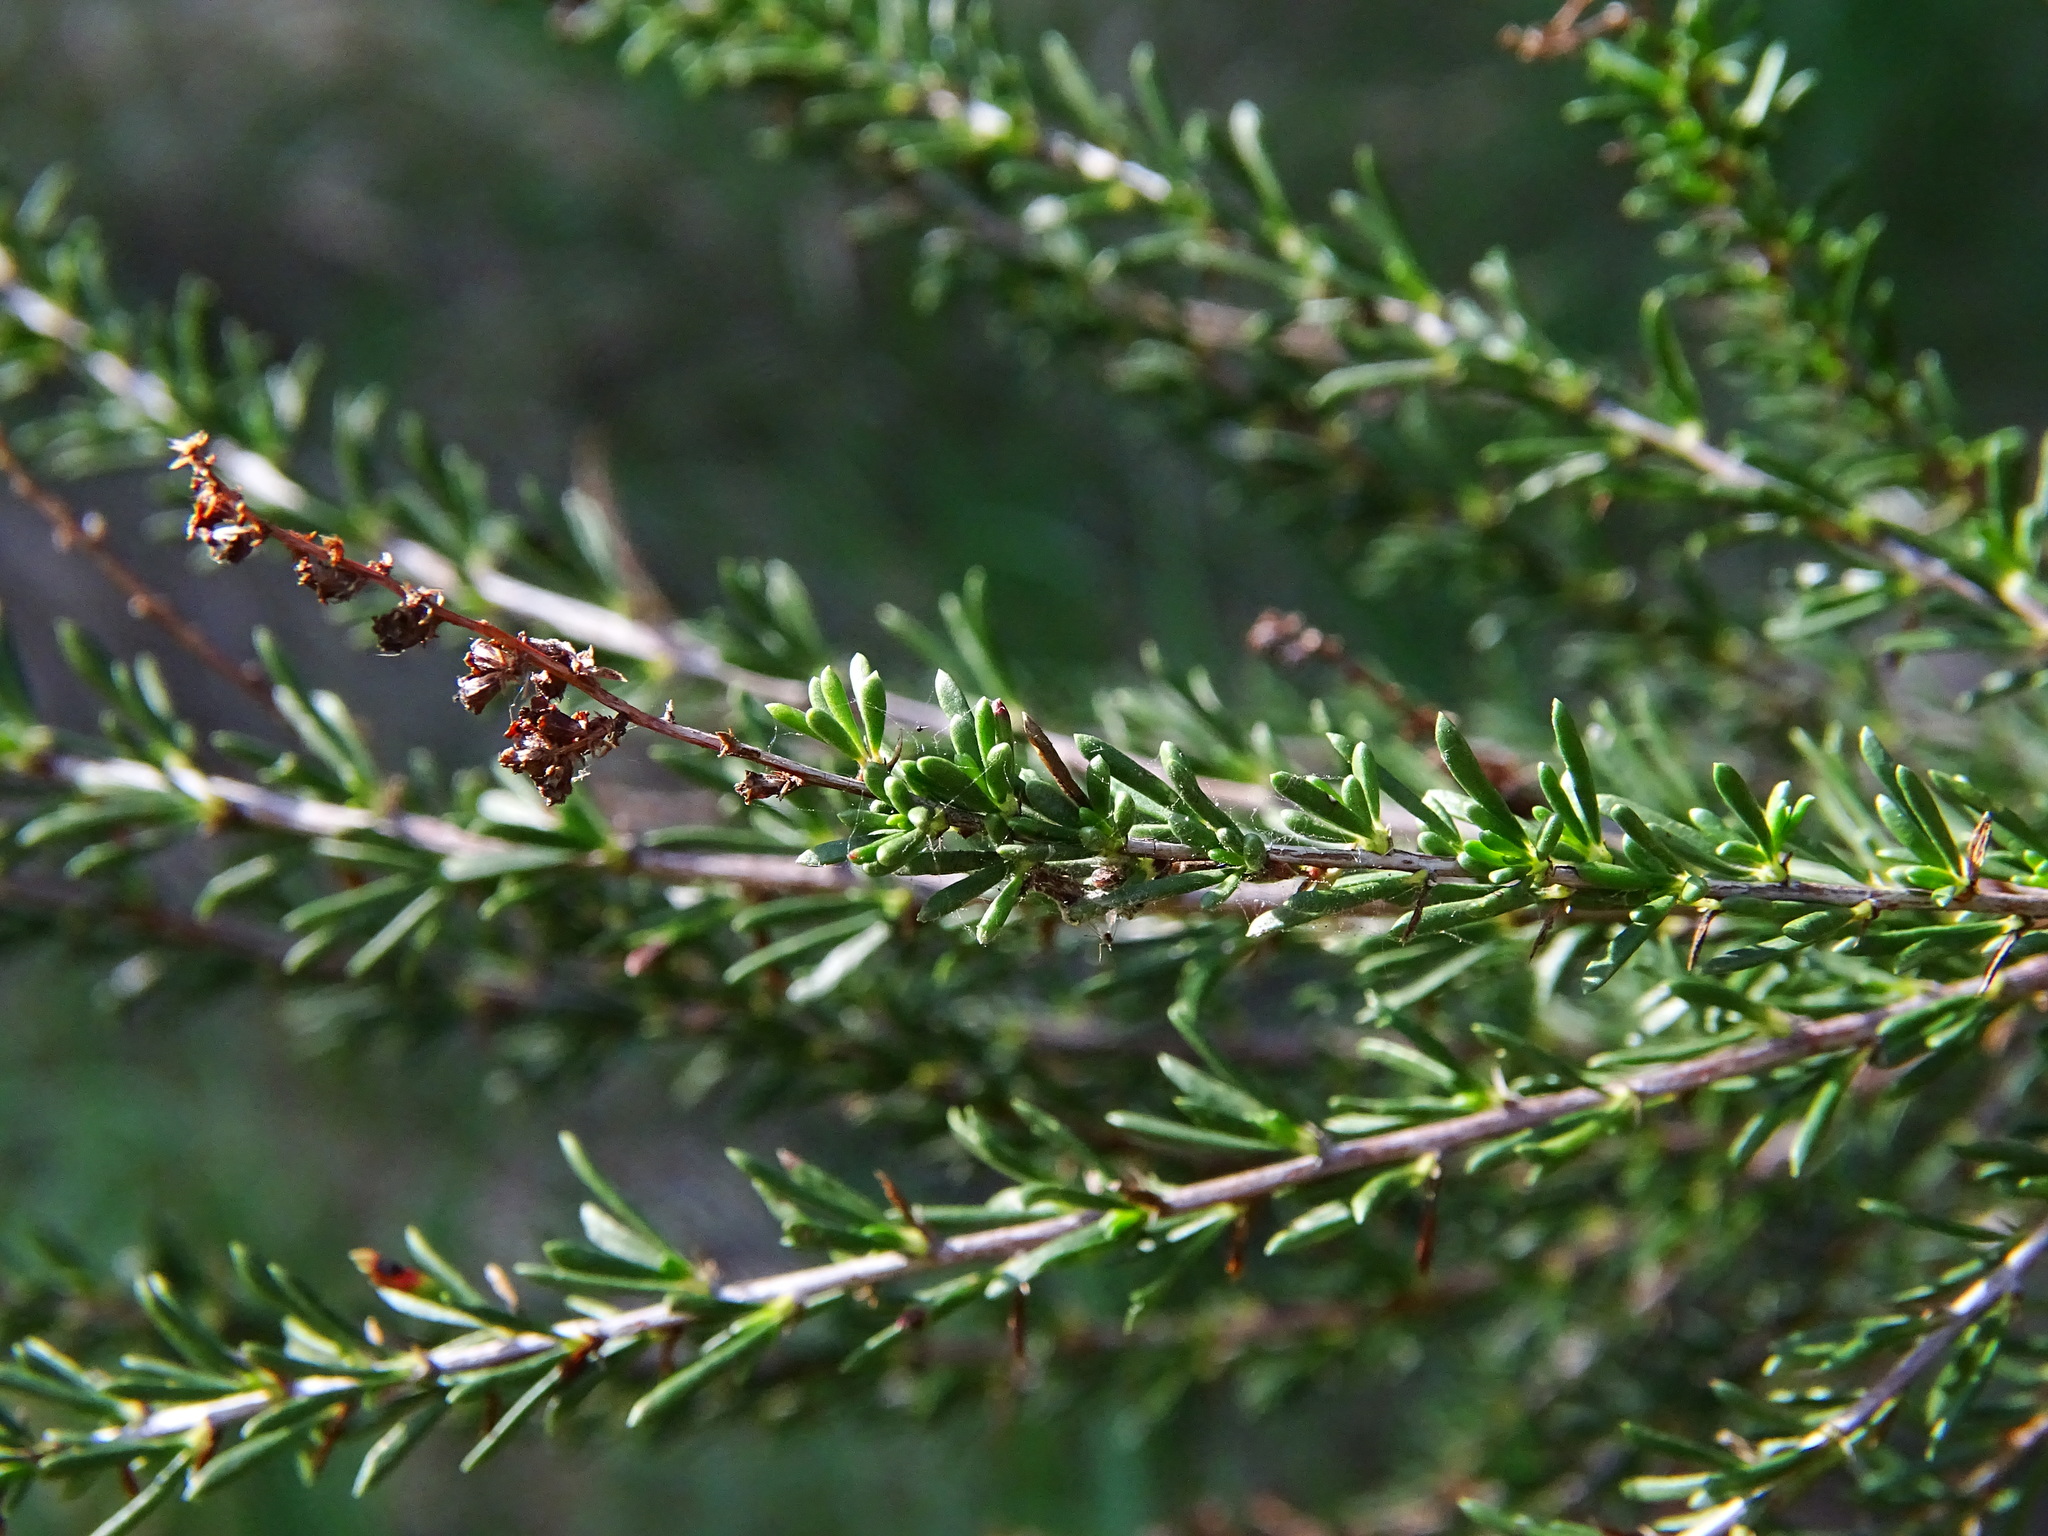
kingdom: Plantae
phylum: Tracheophyta
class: Magnoliopsida
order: Rosales
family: Rosaceae
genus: Adenostoma
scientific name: Adenostoma fasciculatum
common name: Chamise
